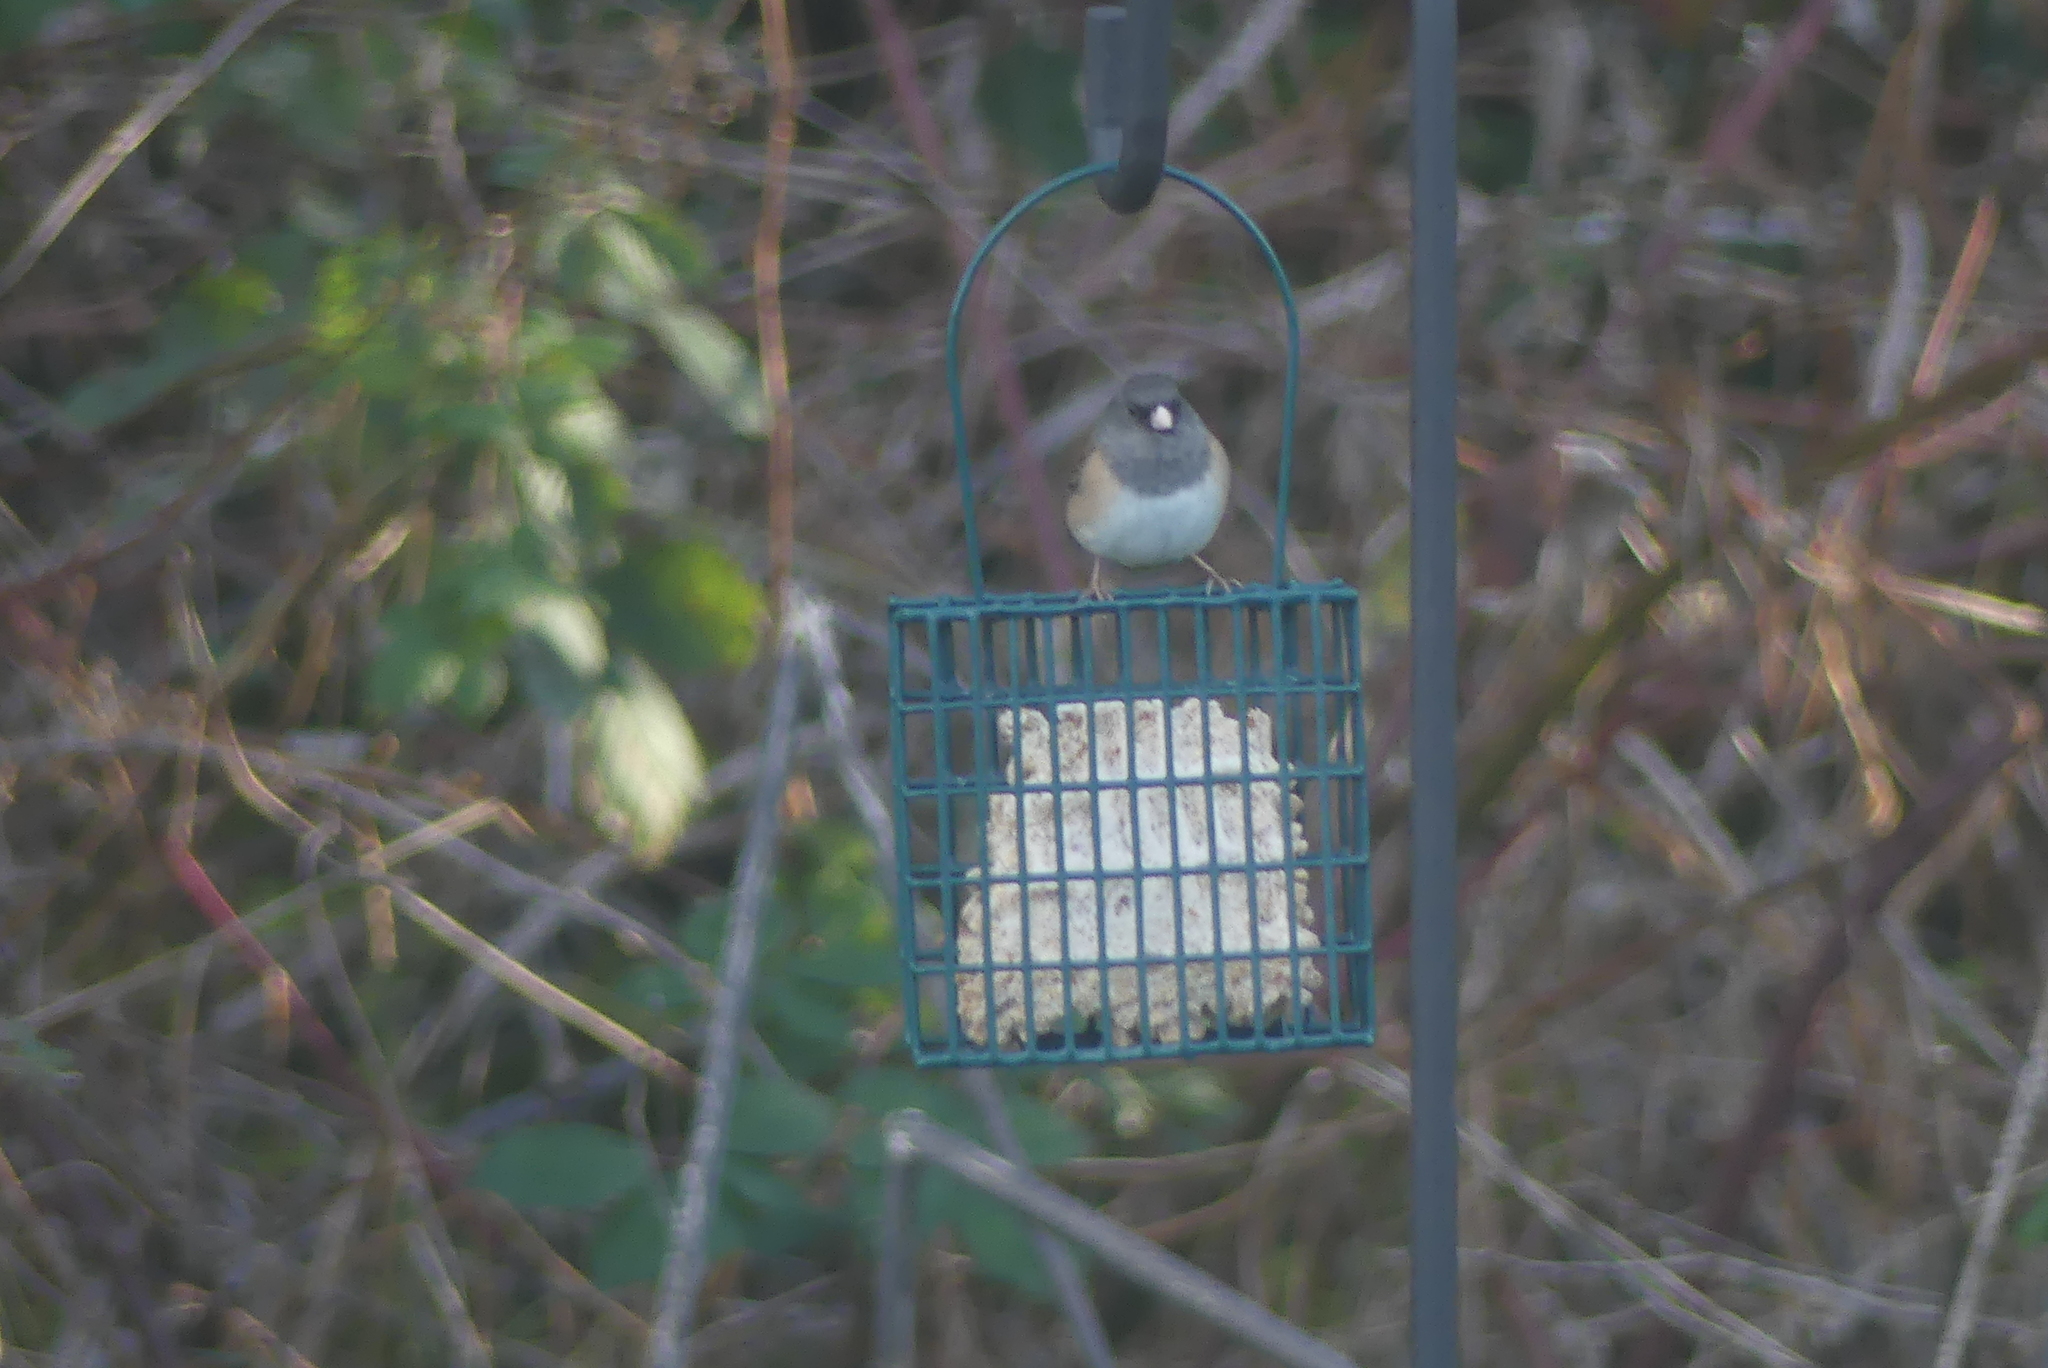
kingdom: Animalia
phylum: Chordata
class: Aves
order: Passeriformes
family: Passerellidae
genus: Junco
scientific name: Junco hyemalis
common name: Dark-eyed junco
